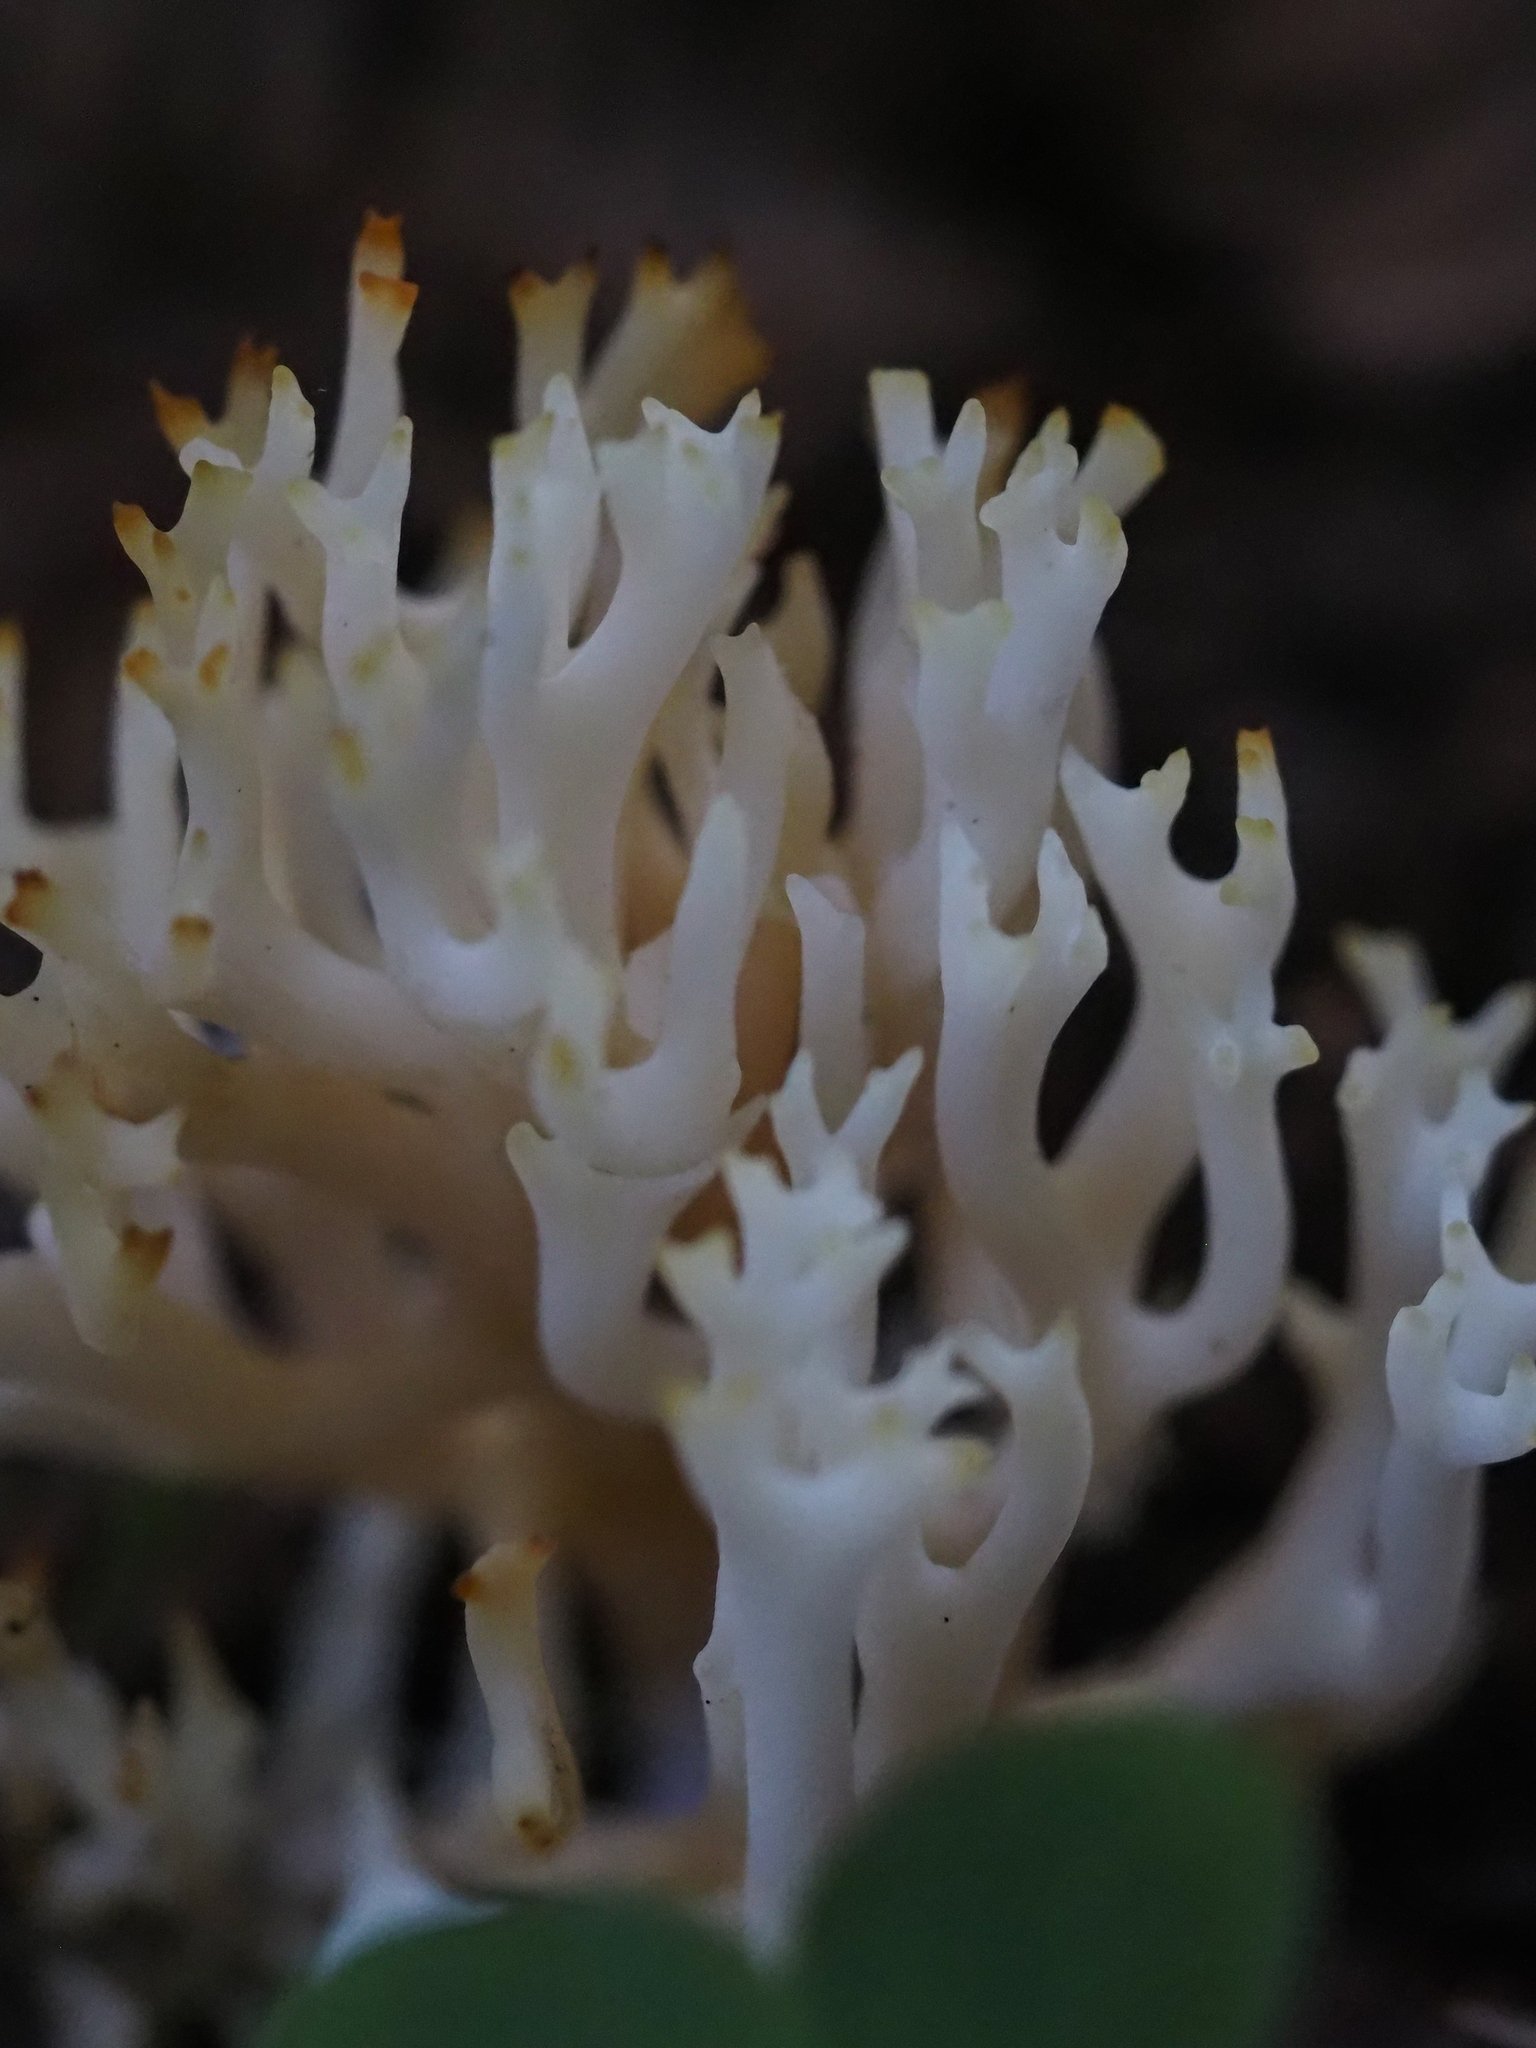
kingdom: Fungi
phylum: Basidiomycota
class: Agaricomycetes
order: Agaricales
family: Clavariaceae
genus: Ramariopsis
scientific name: Ramariopsis kunzei
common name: Ivory coral
